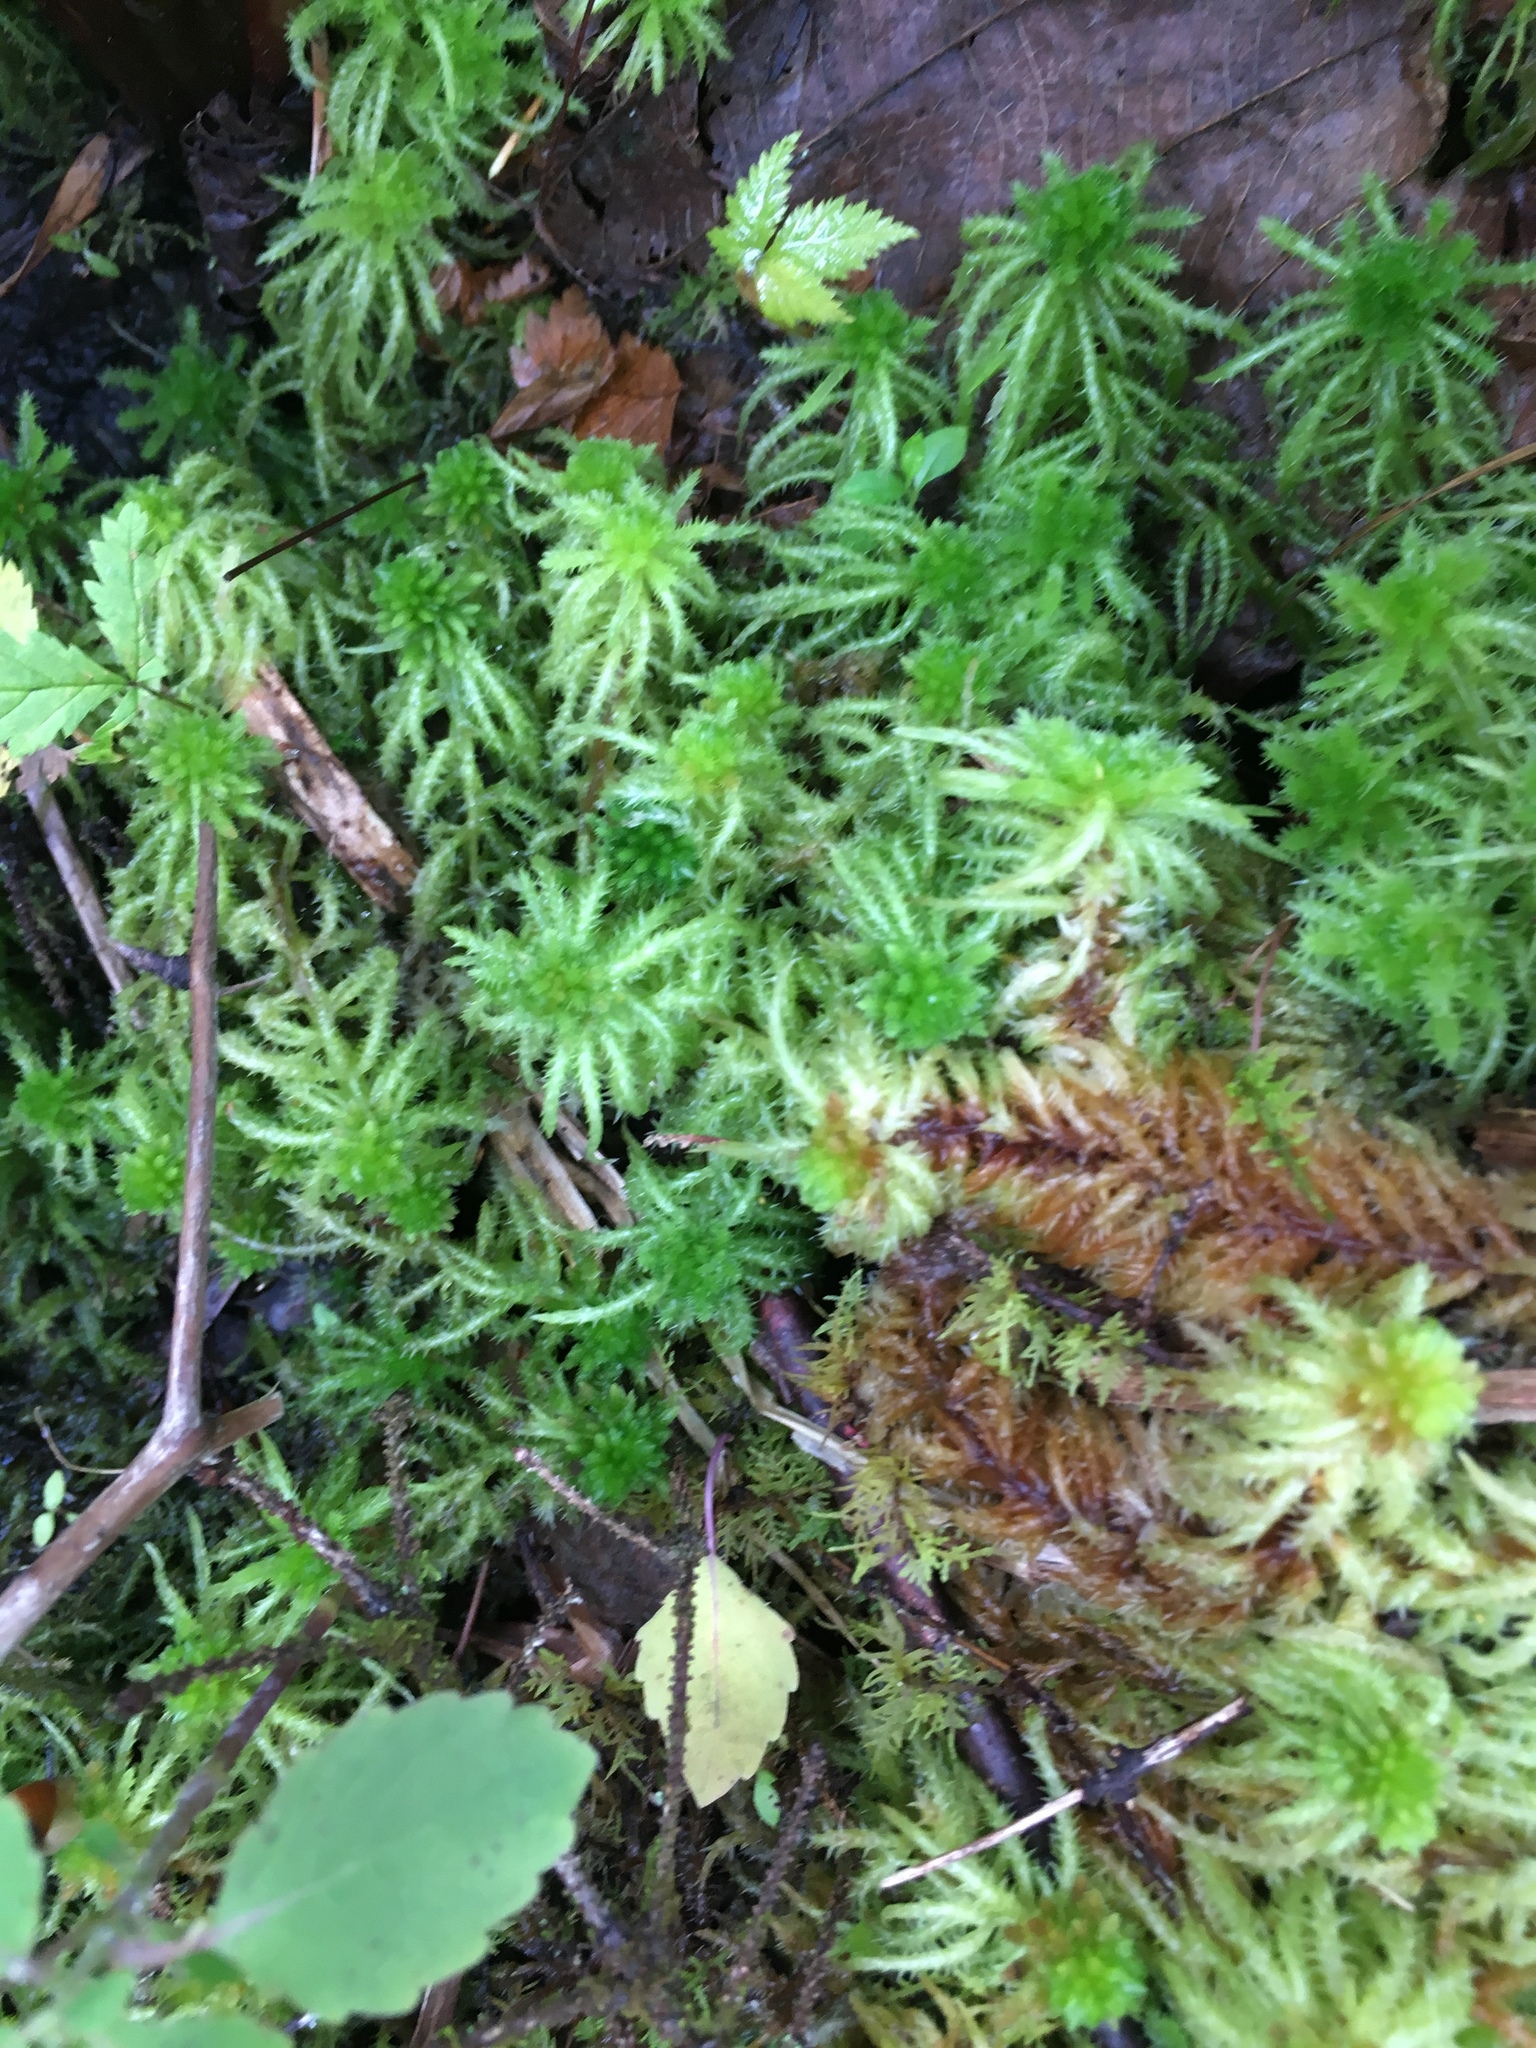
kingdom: Plantae
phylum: Bryophyta
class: Sphagnopsida
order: Sphagnales
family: Sphagnaceae
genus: Sphagnum
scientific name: Sphagnum squarrosum
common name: Shaggy peat moss
